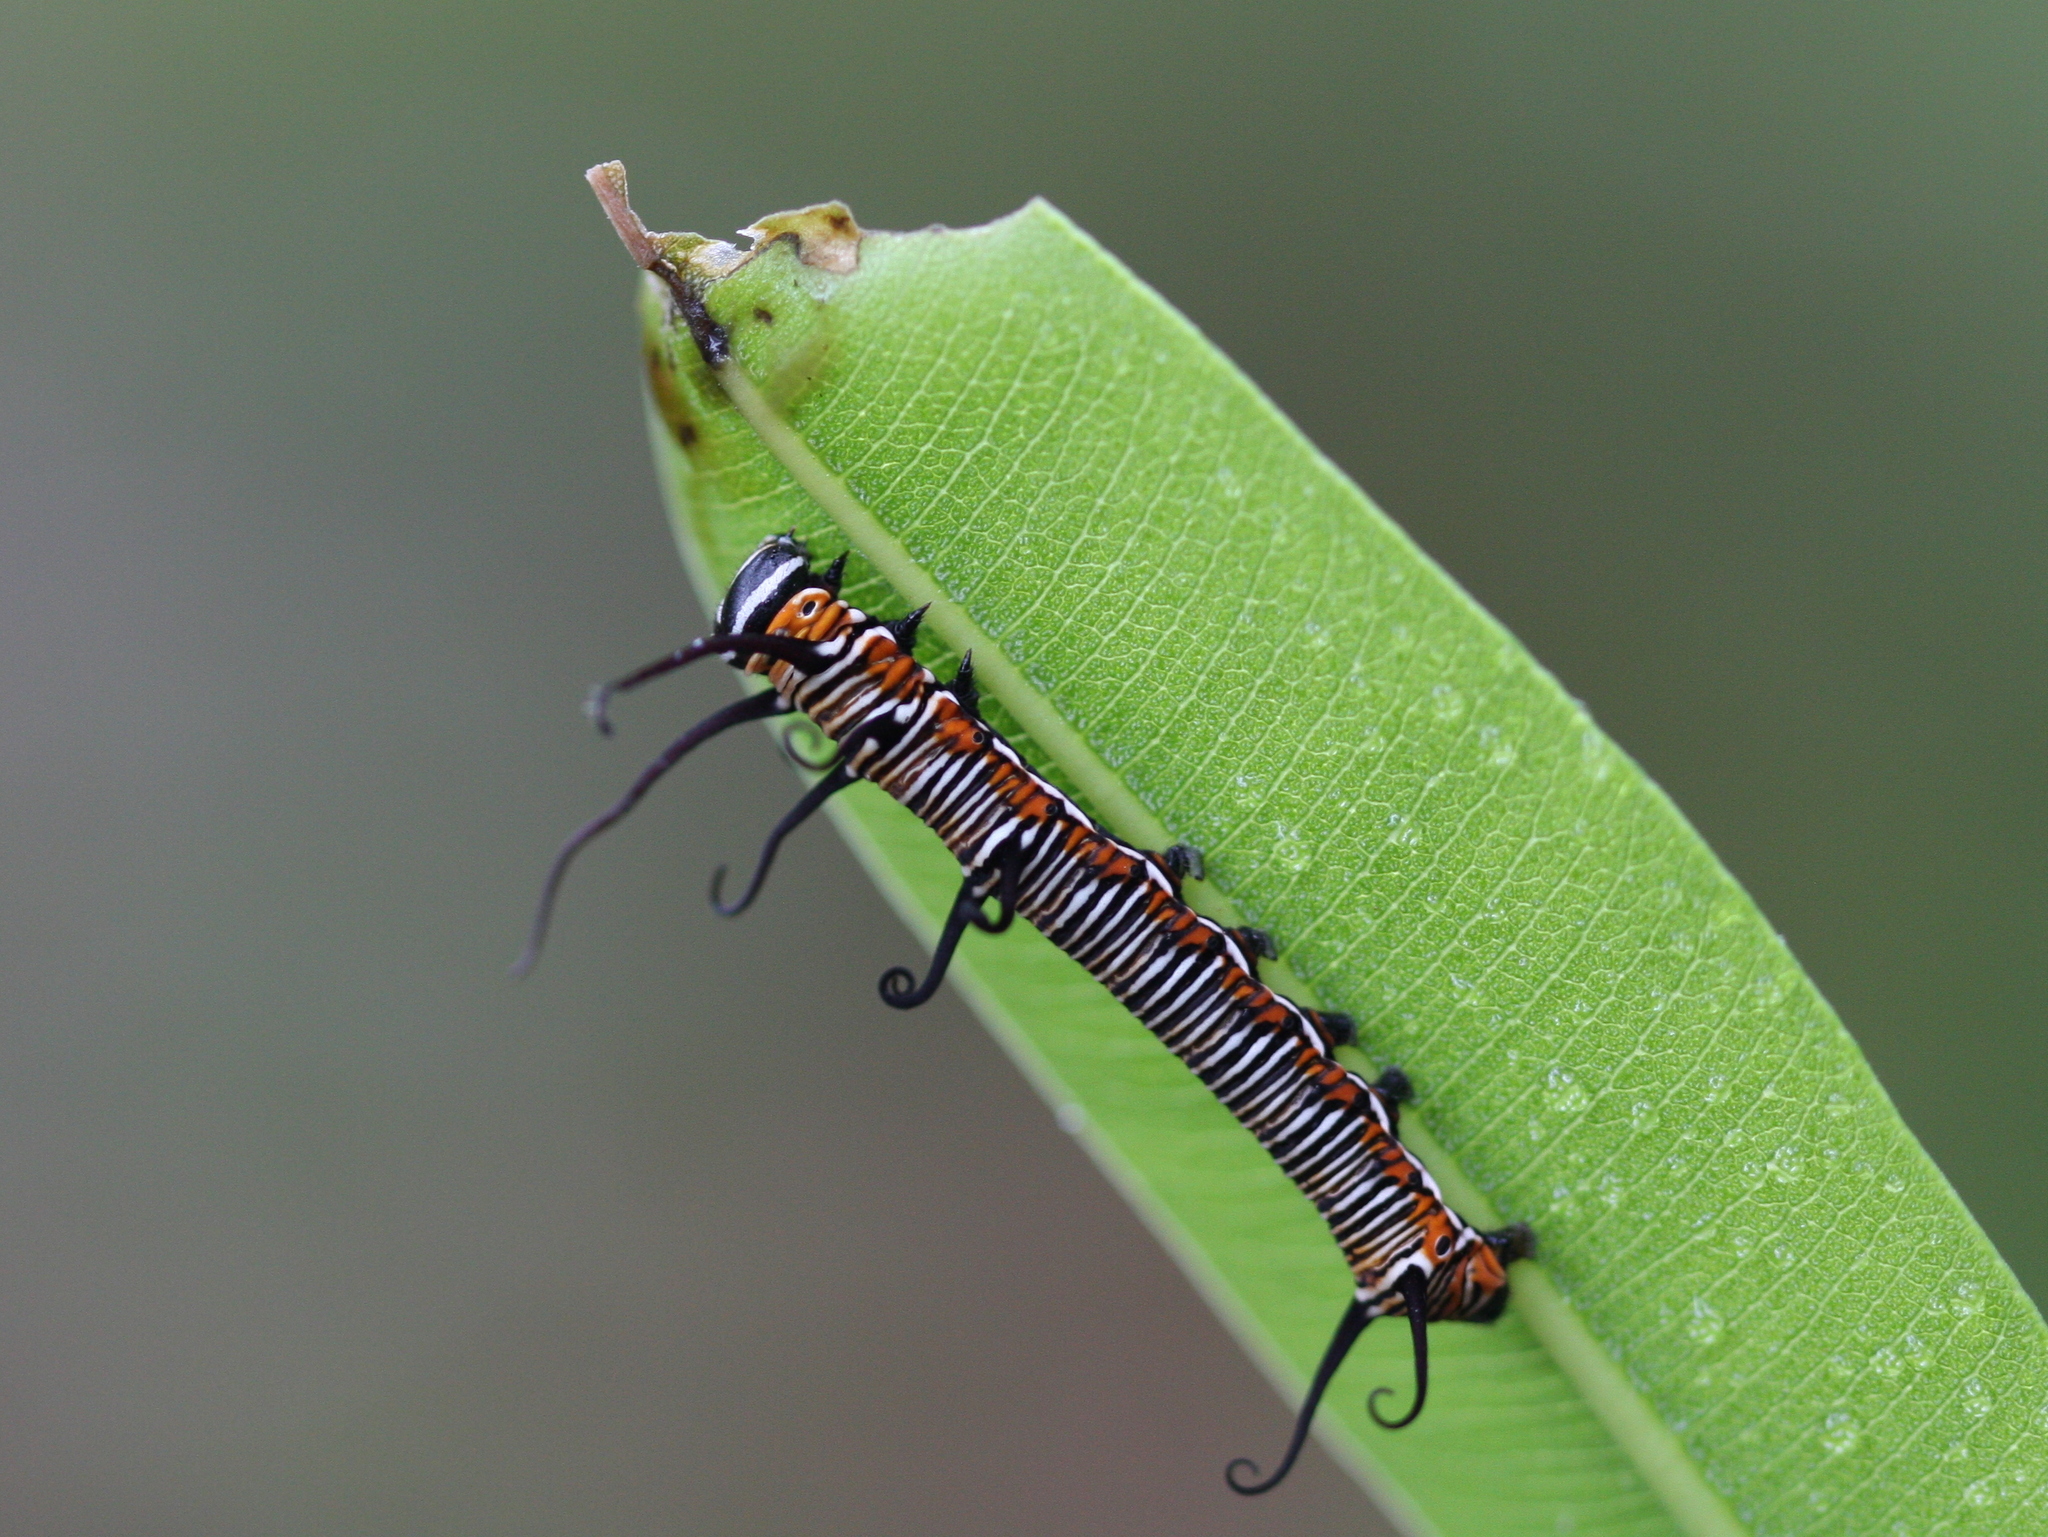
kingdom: Animalia
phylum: Arthropoda
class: Insecta
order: Lepidoptera
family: Nymphalidae
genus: Euploea
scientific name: Euploea core
